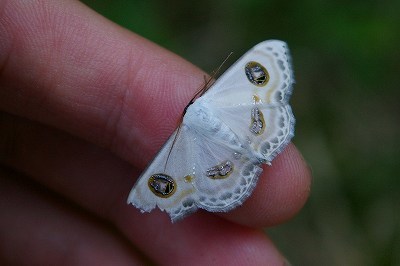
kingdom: Animalia
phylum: Arthropoda
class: Insecta
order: Lepidoptera
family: Geometridae
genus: Problepsis
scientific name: Problepsis albidior
